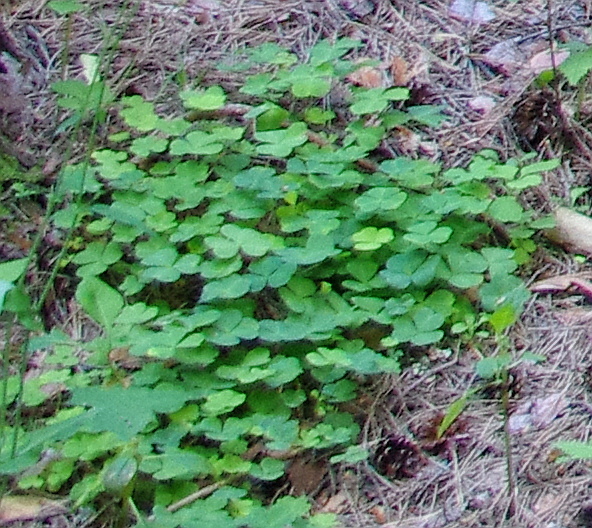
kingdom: Plantae
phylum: Tracheophyta
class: Magnoliopsida
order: Oxalidales
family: Oxalidaceae
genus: Oxalis
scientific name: Oxalis acetosella
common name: Wood-sorrel
